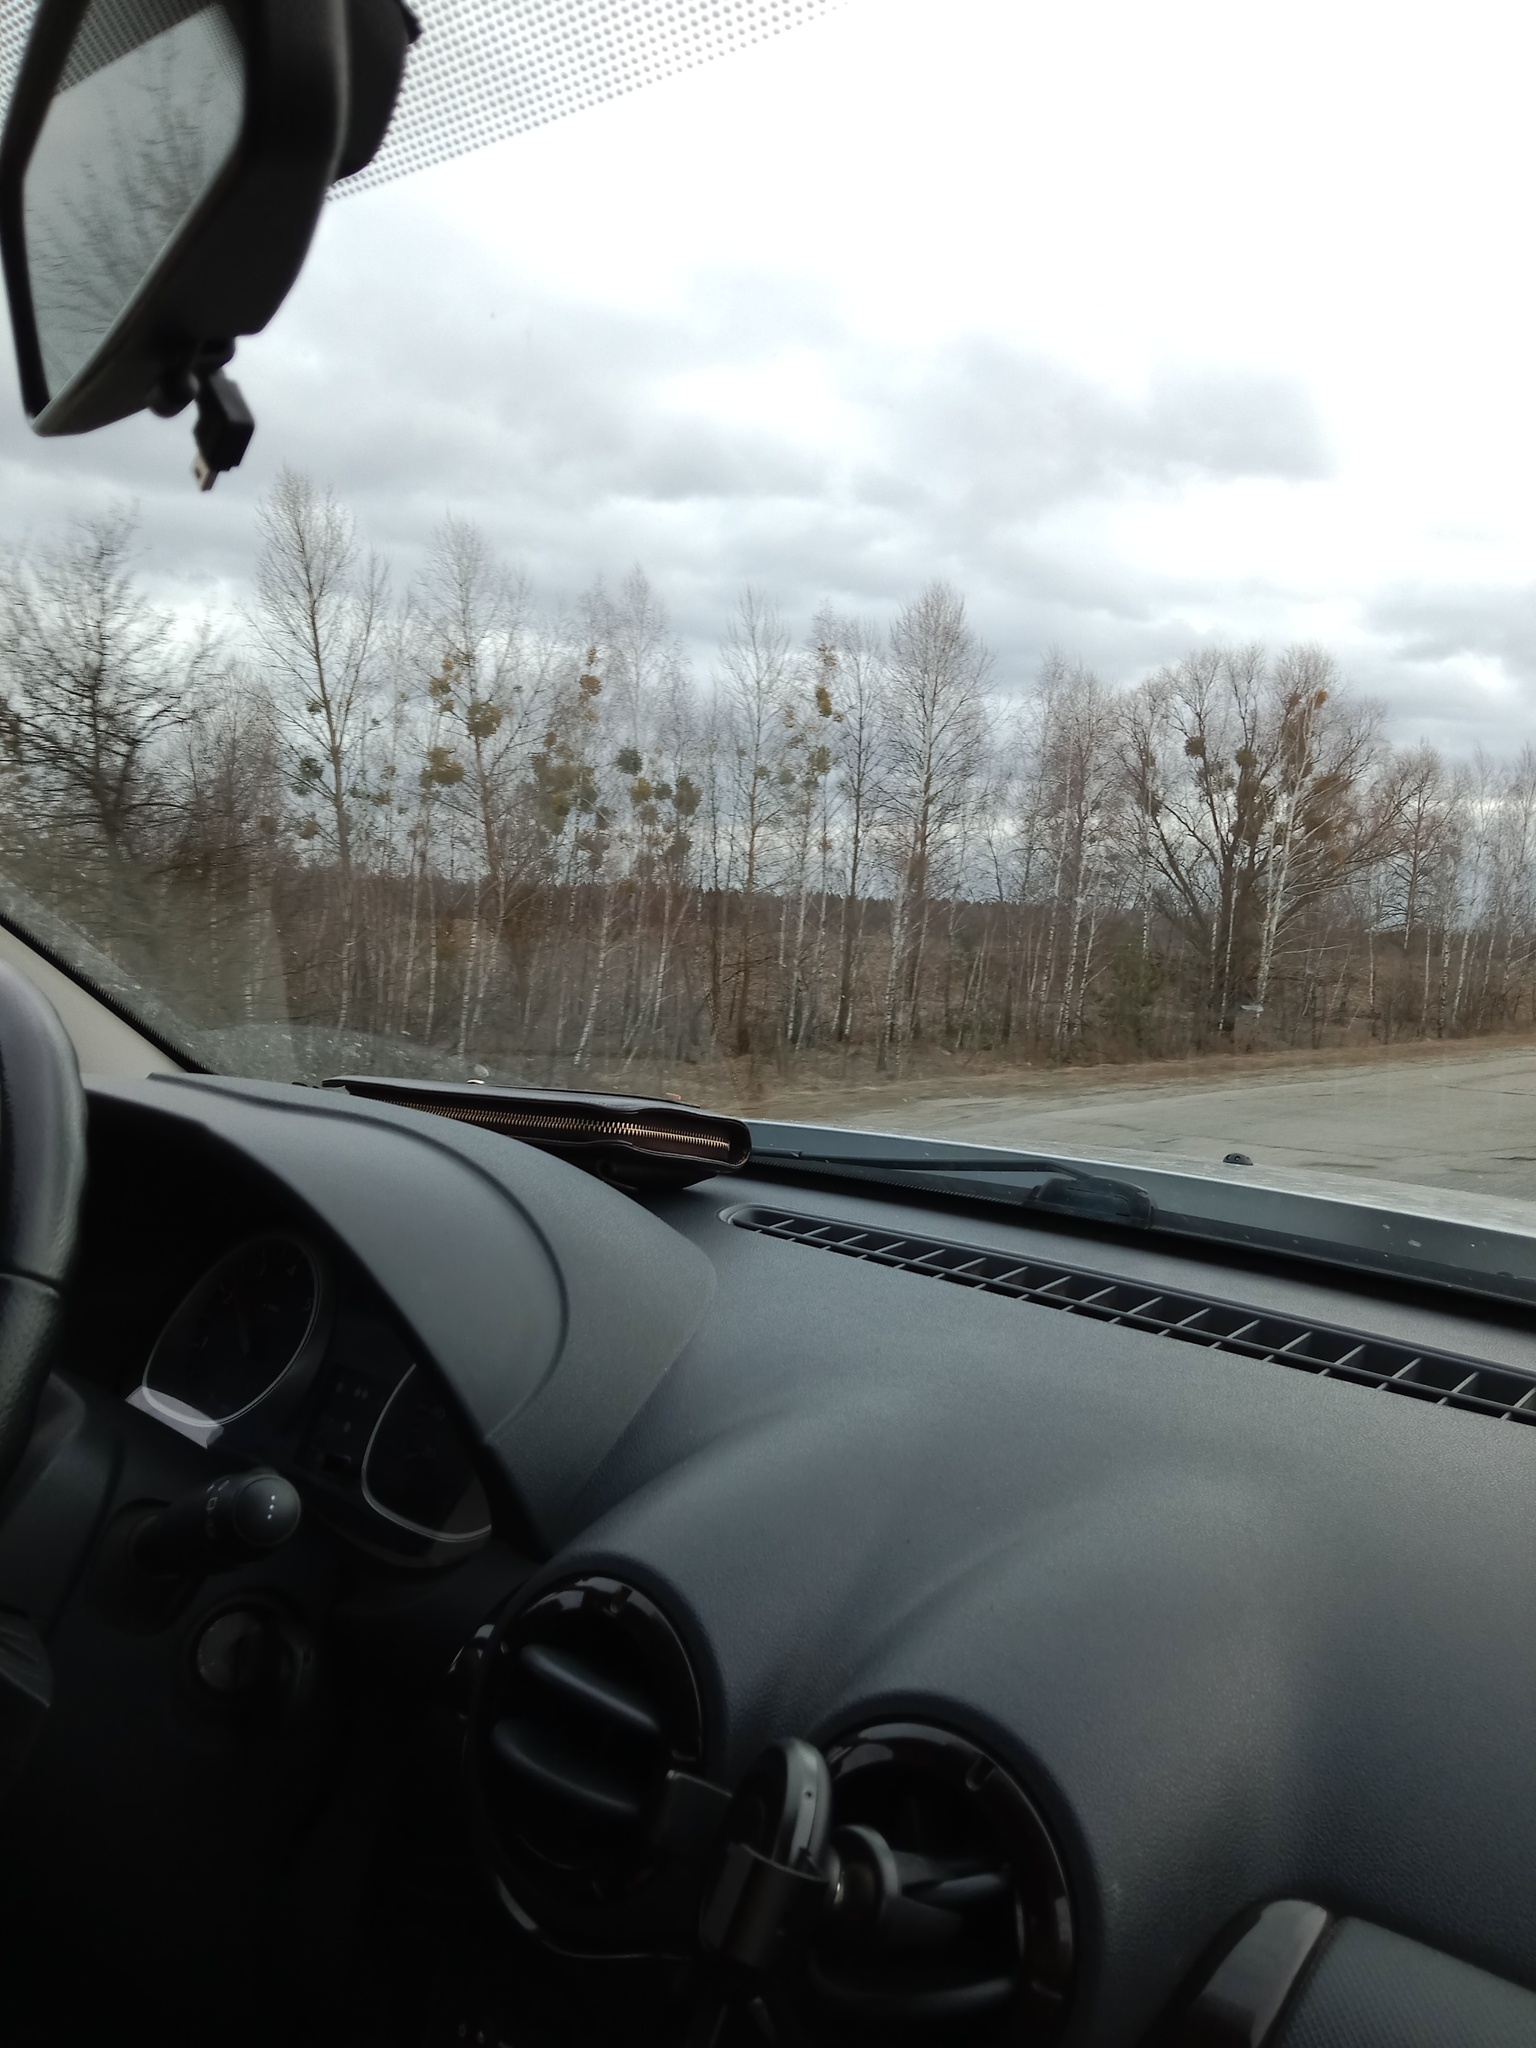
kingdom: Plantae
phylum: Tracheophyta
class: Magnoliopsida
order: Santalales
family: Viscaceae
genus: Viscum
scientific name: Viscum album
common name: Mistletoe
